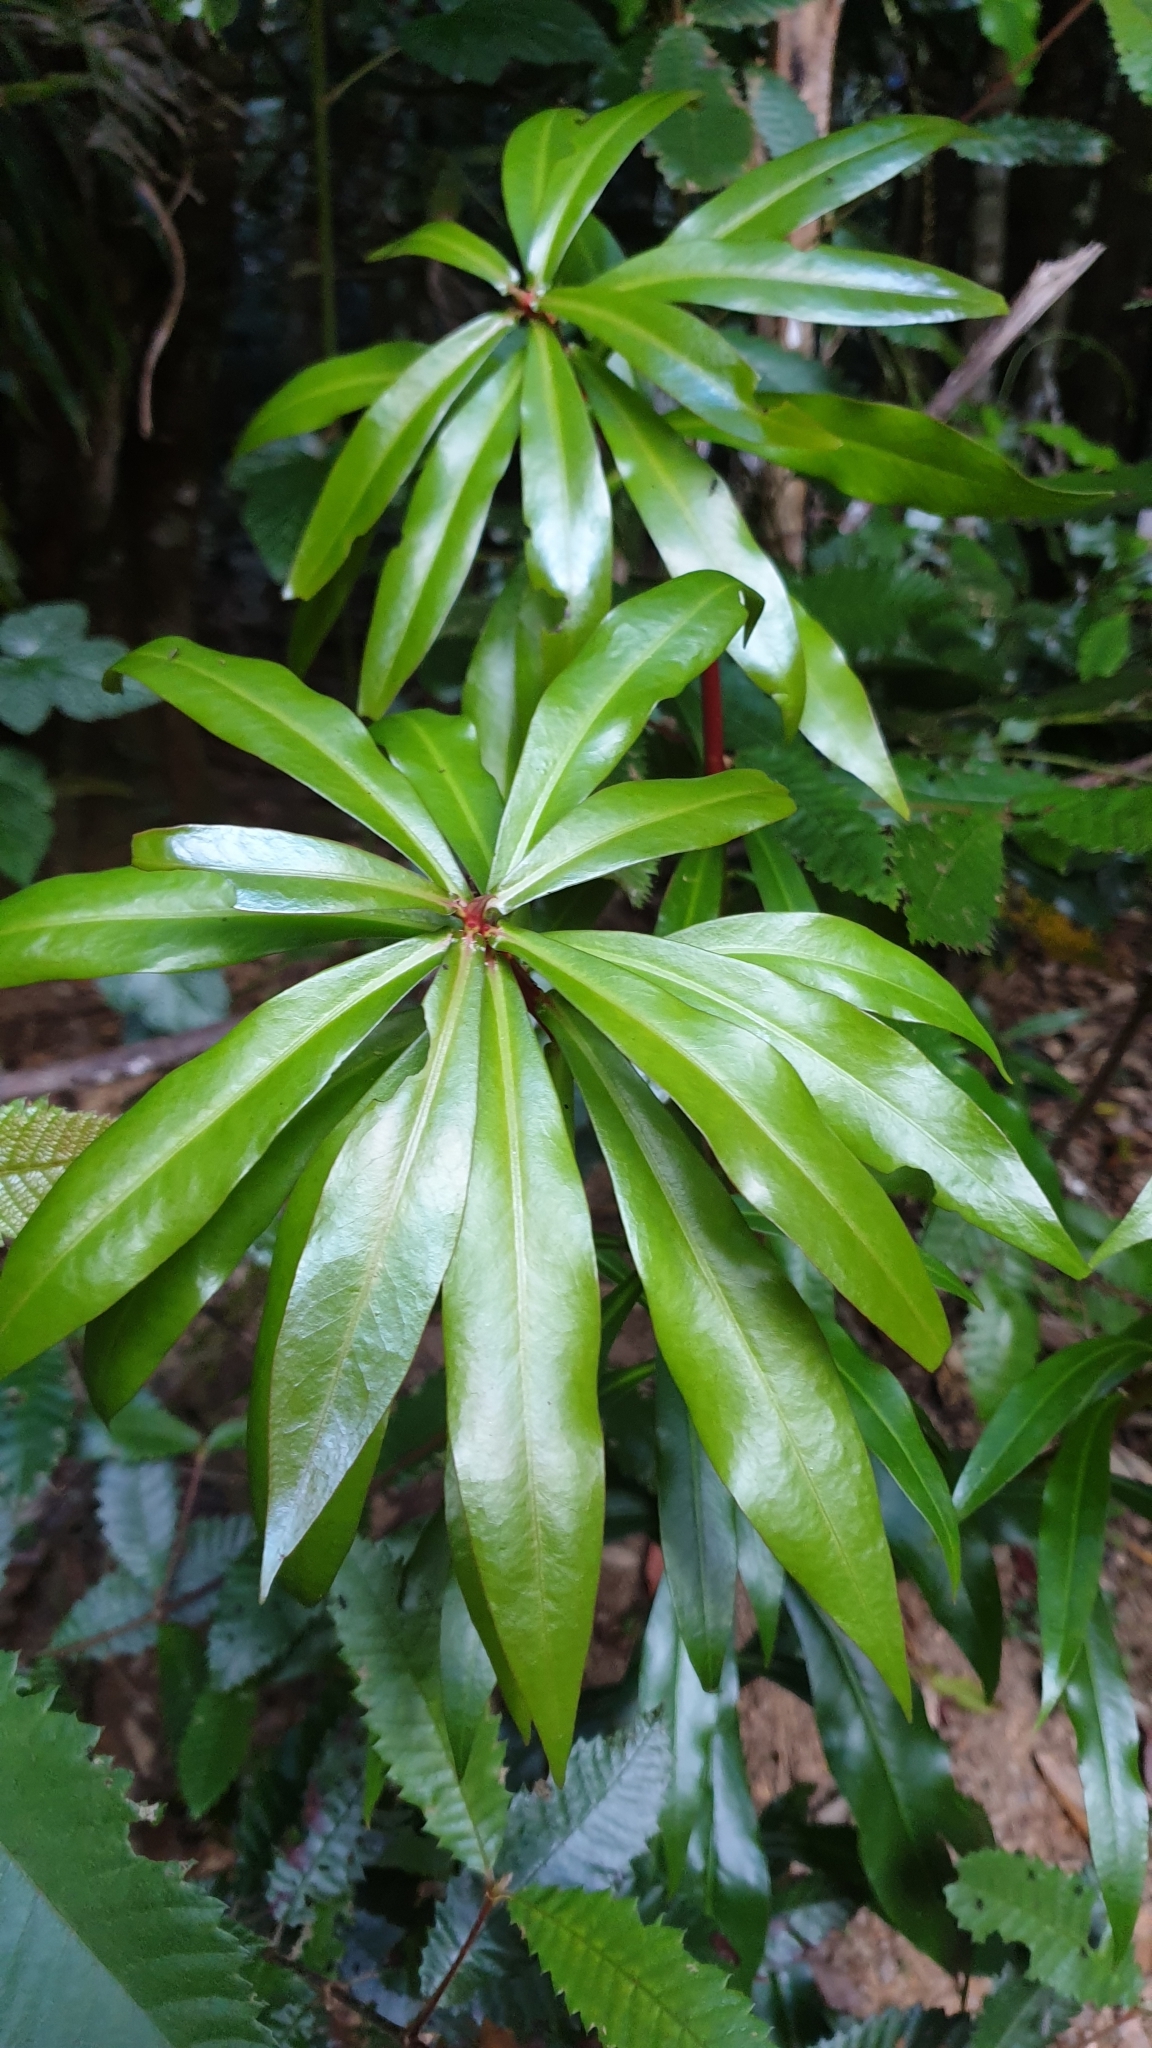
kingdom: Plantae
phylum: Tracheophyta
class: Magnoliopsida
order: Canellales
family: Winteraceae
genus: Drimys
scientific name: Drimys insipida
